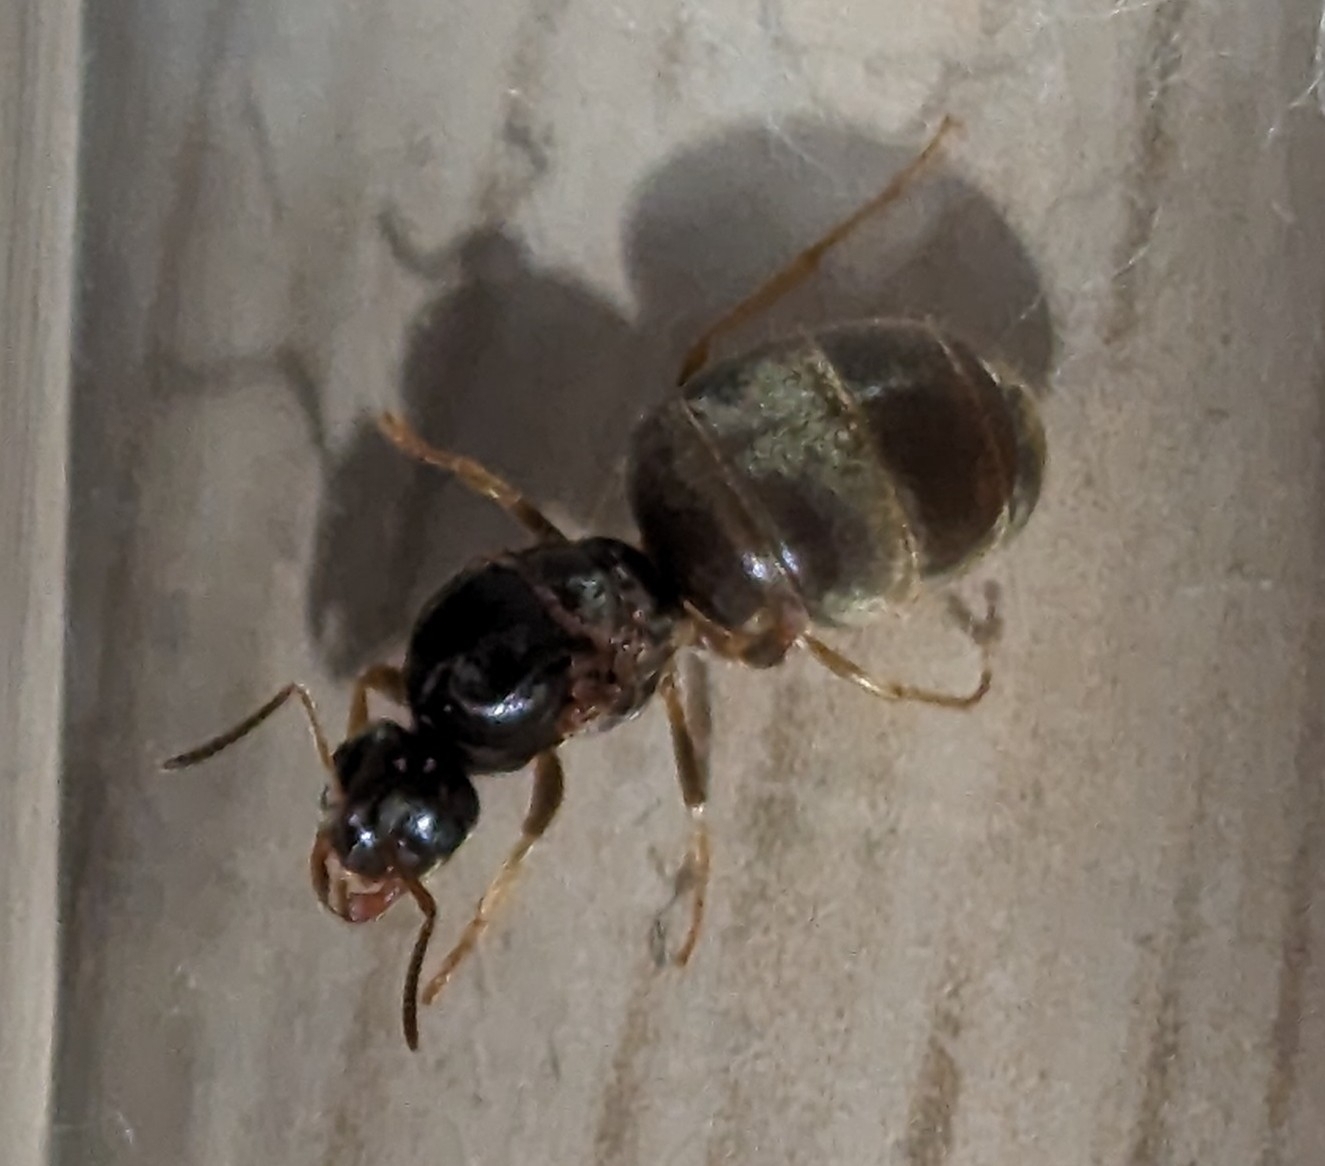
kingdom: Animalia
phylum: Arthropoda
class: Insecta
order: Hymenoptera
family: Formicidae
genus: Lasius
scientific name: Lasius neoniger
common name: Turfgrass ant
